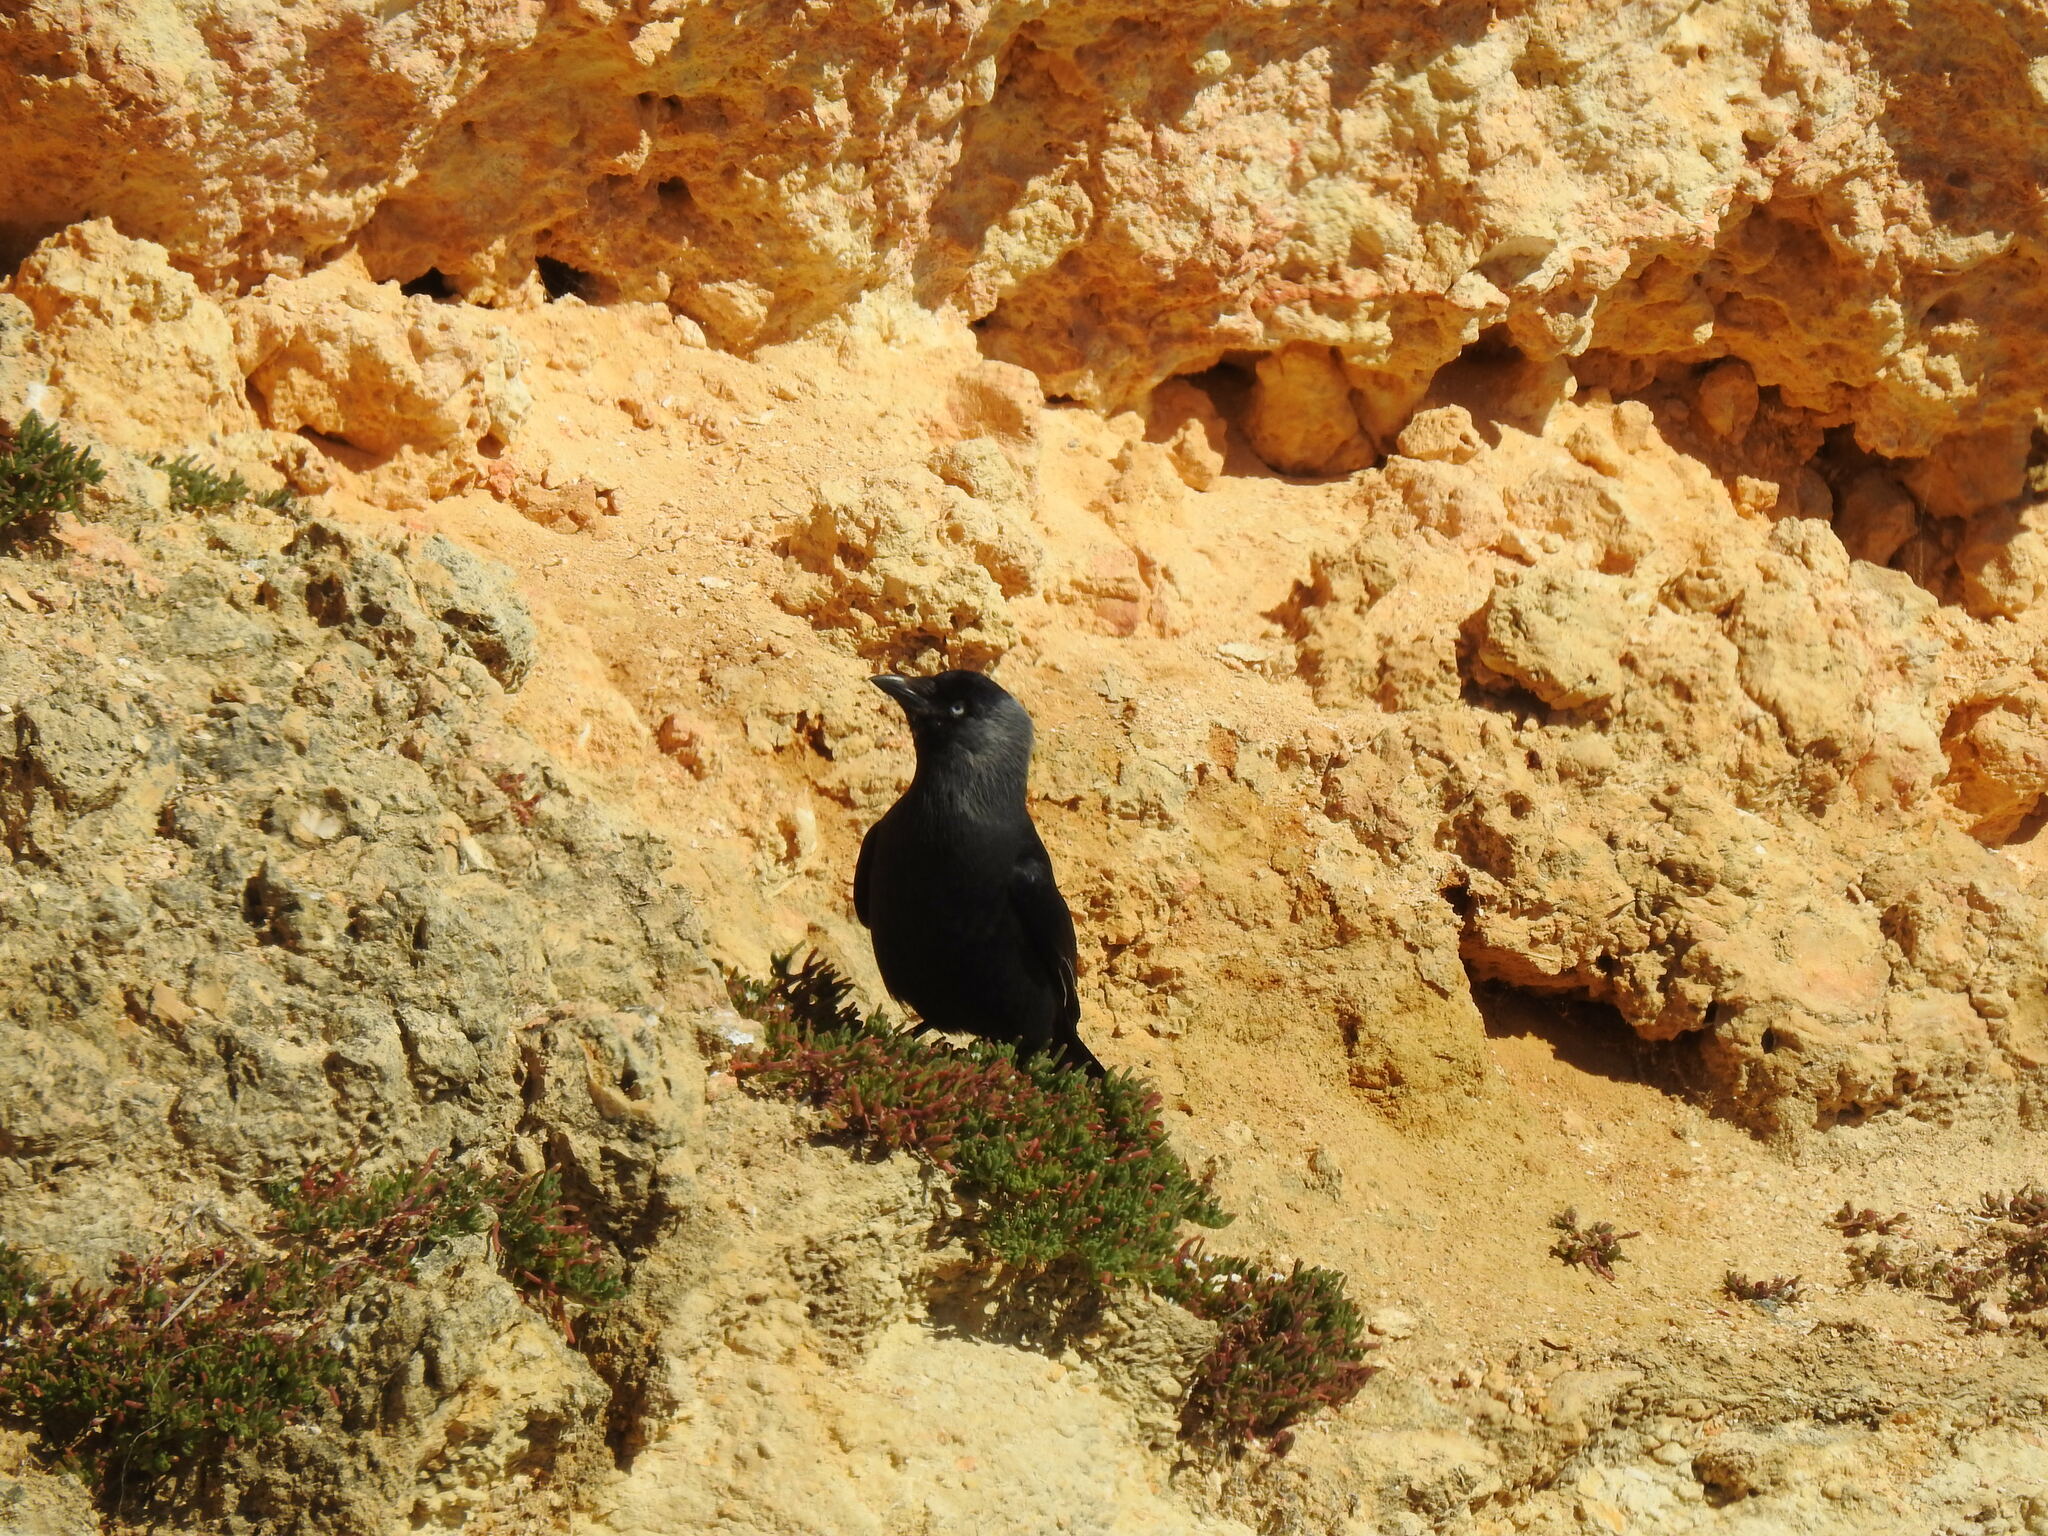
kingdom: Animalia
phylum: Chordata
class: Aves
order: Passeriformes
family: Corvidae
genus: Coloeus
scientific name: Coloeus monedula
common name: Western jackdaw
